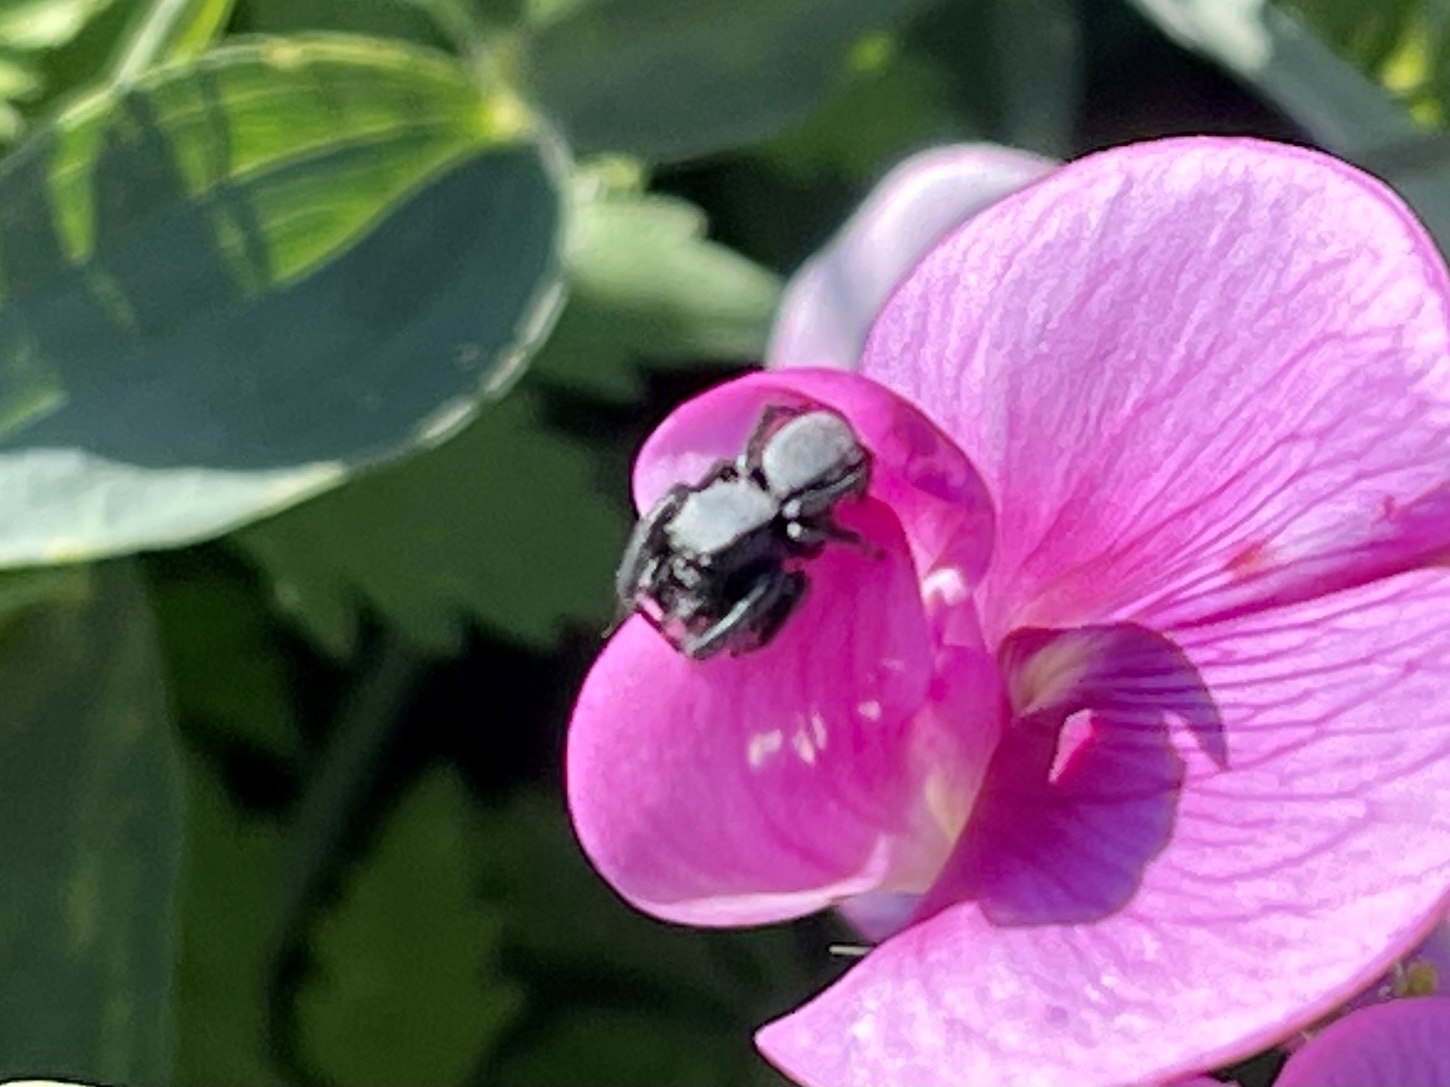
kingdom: Animalia
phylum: Arthropoda
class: Arachnida
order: Araneae
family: Salticidae
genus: Phidippus
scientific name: Phidippus octopunctatus
